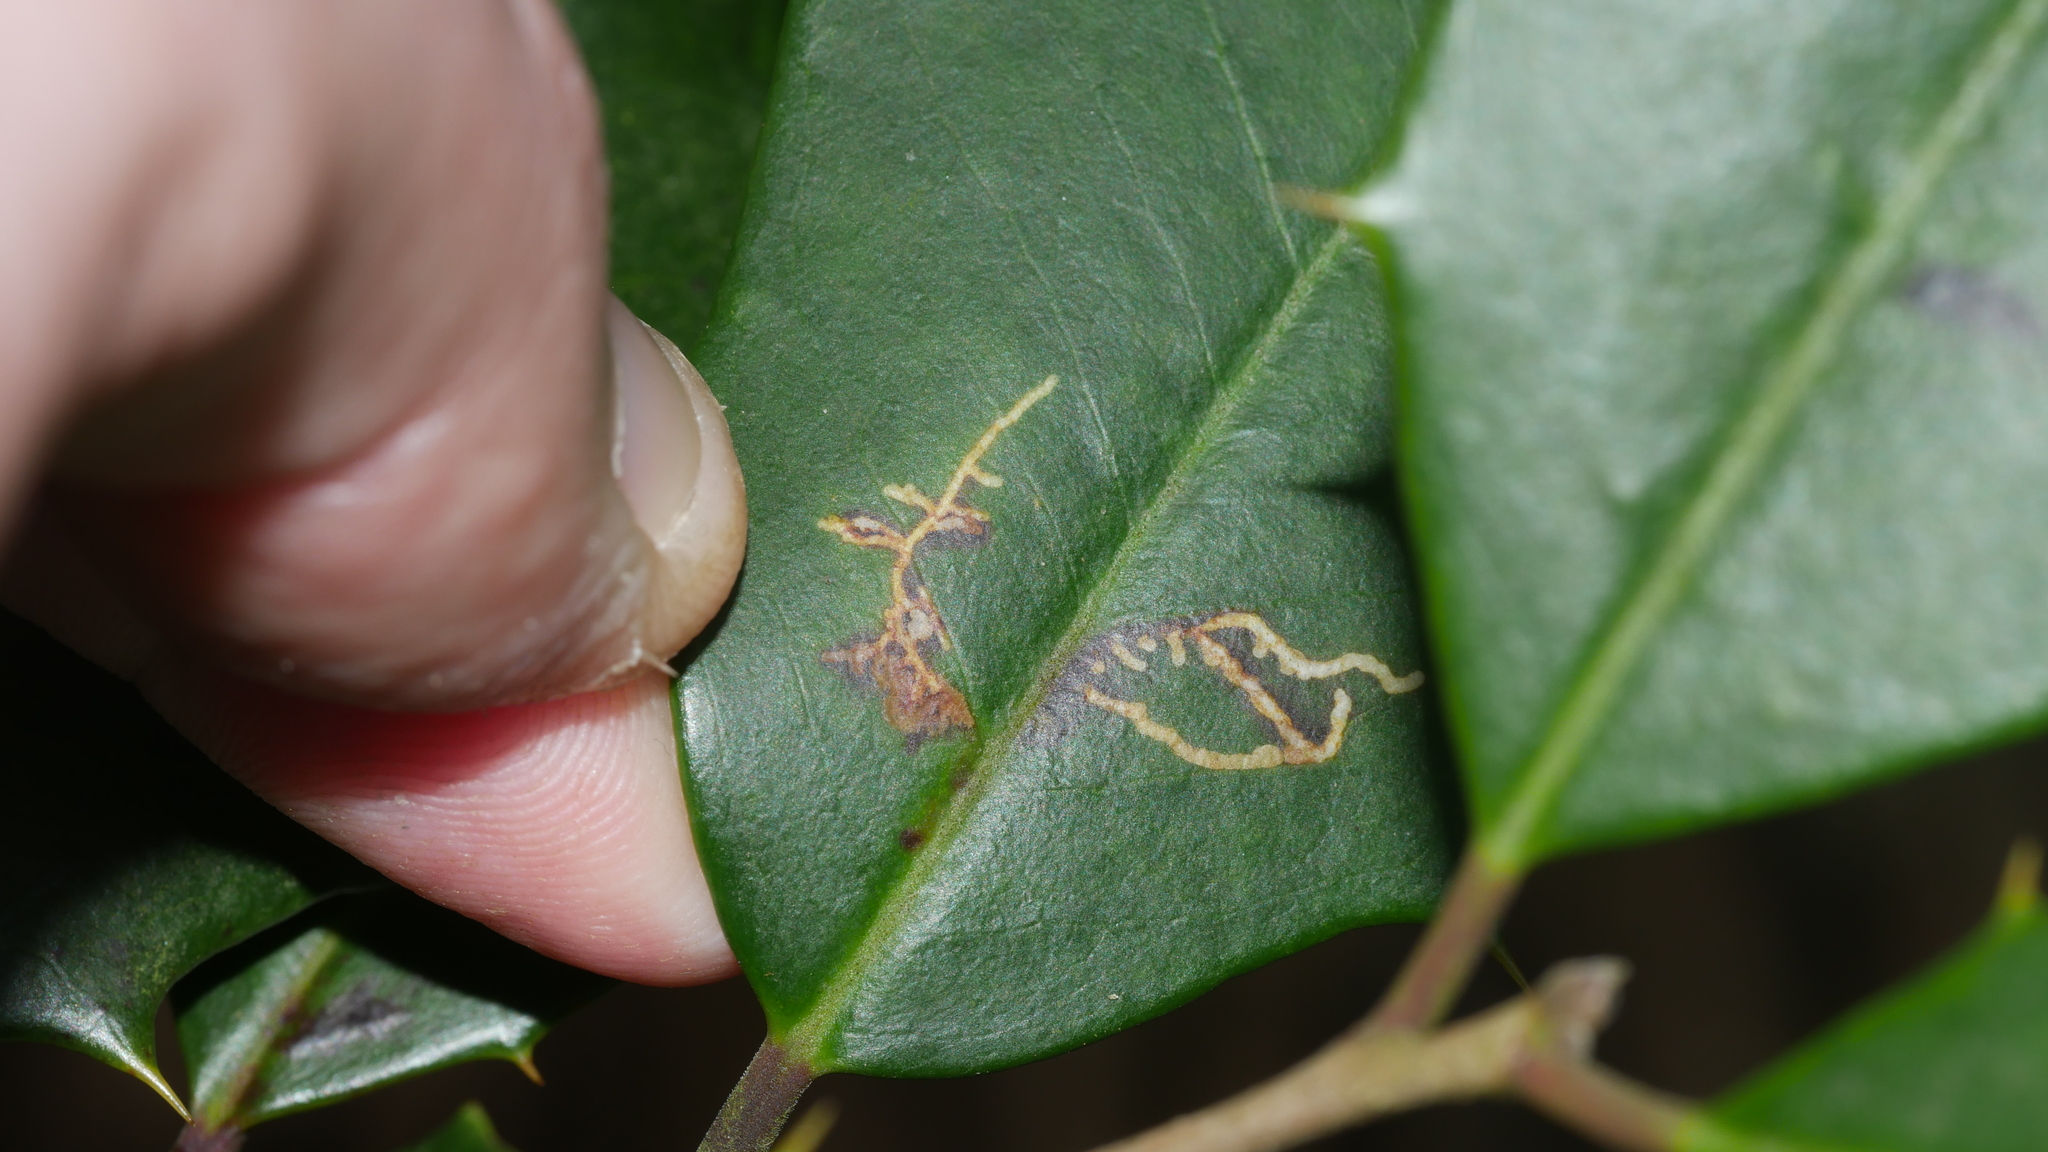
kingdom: Animalia
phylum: Arthropoda
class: Insecta
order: Lepidoptera
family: Tortricidae
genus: Rhopobota
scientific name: Rhopobota
